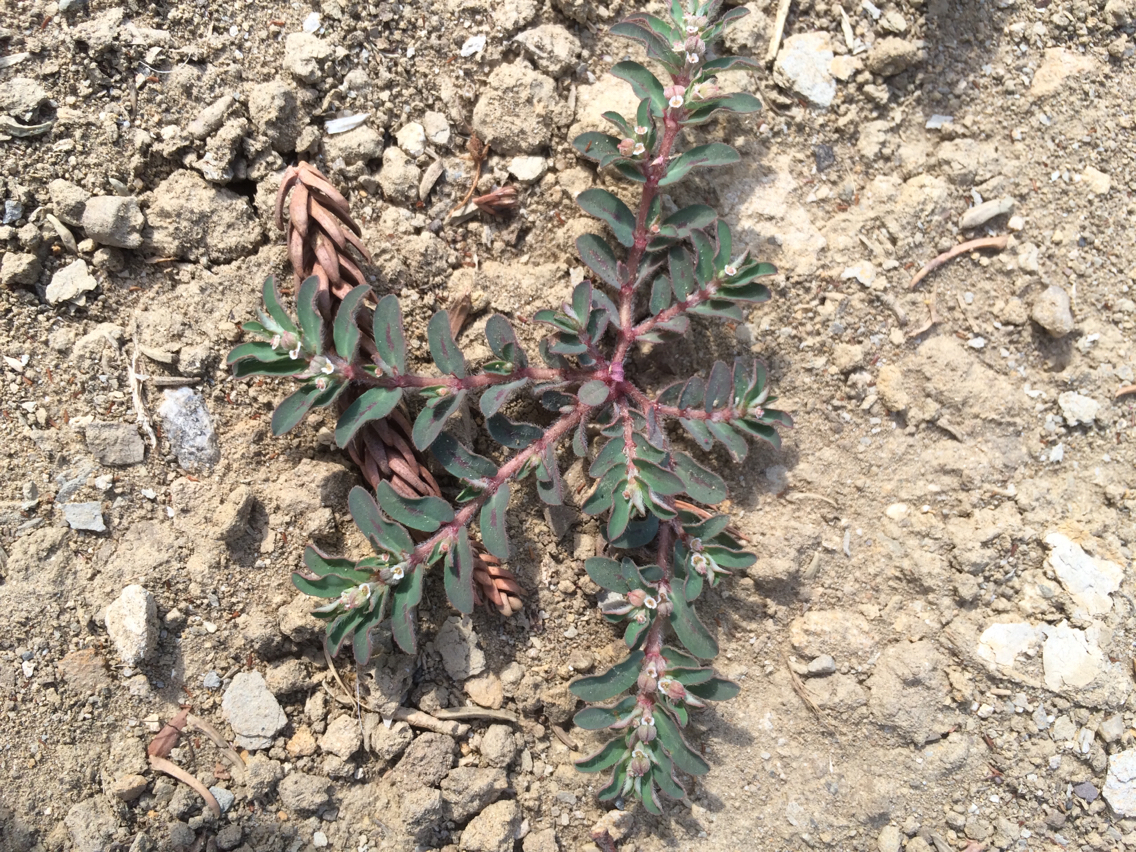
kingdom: Plantae
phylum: Tracheophyta
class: Magnoliopsida
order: Malpighiales
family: Euphorbiaceae
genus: Euphorbia
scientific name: Euphorbia maculata
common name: Spotted spurge
